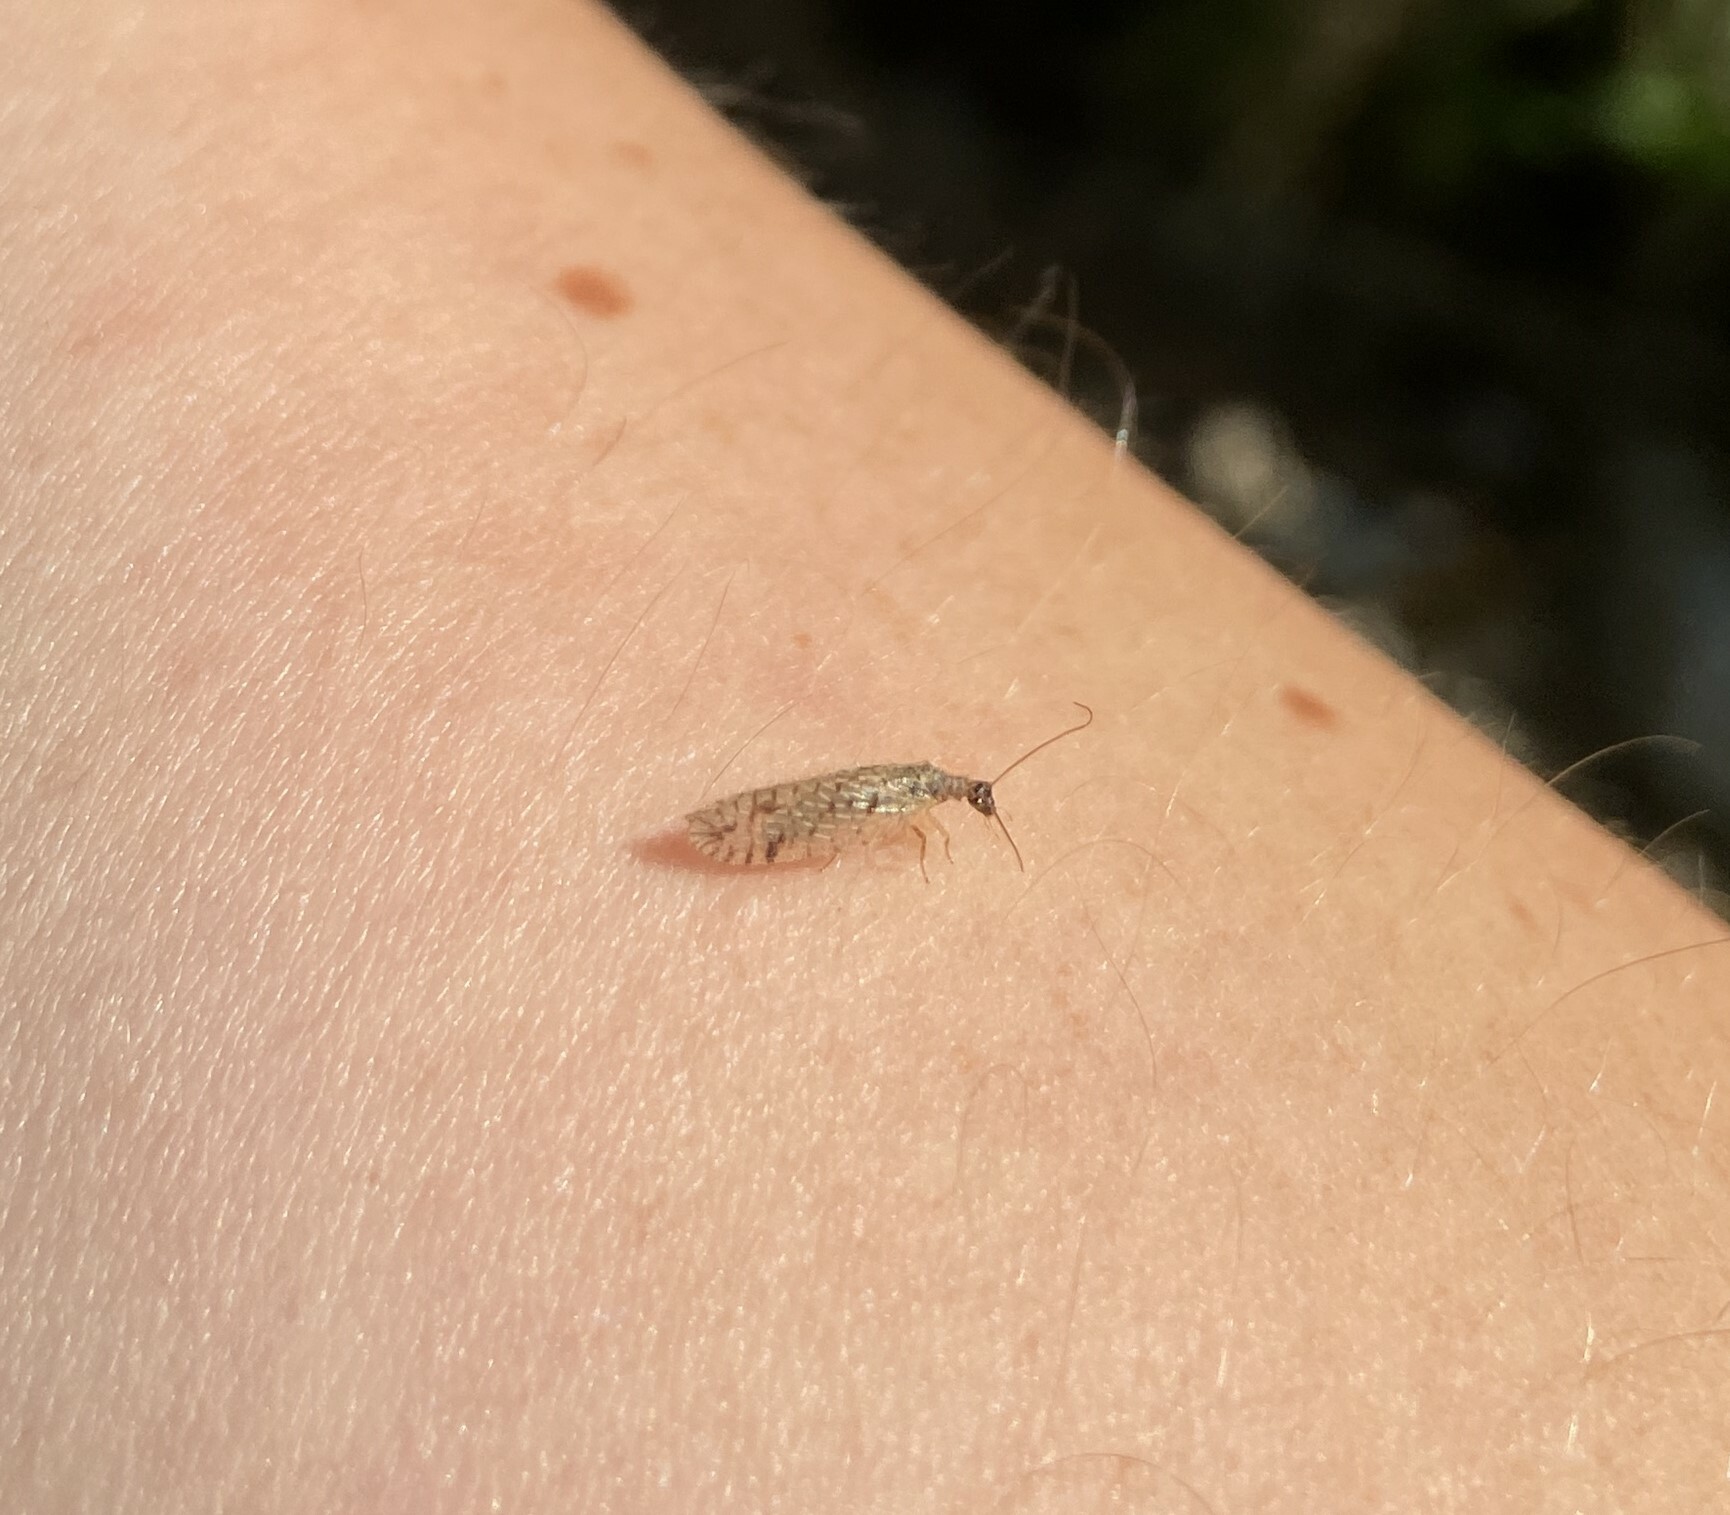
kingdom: Animalia
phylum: Arthropoda
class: Insecta
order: Neuroptera
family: Hemerobiidae
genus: Micromus
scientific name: Micromus variegatus
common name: Brown lacewing
